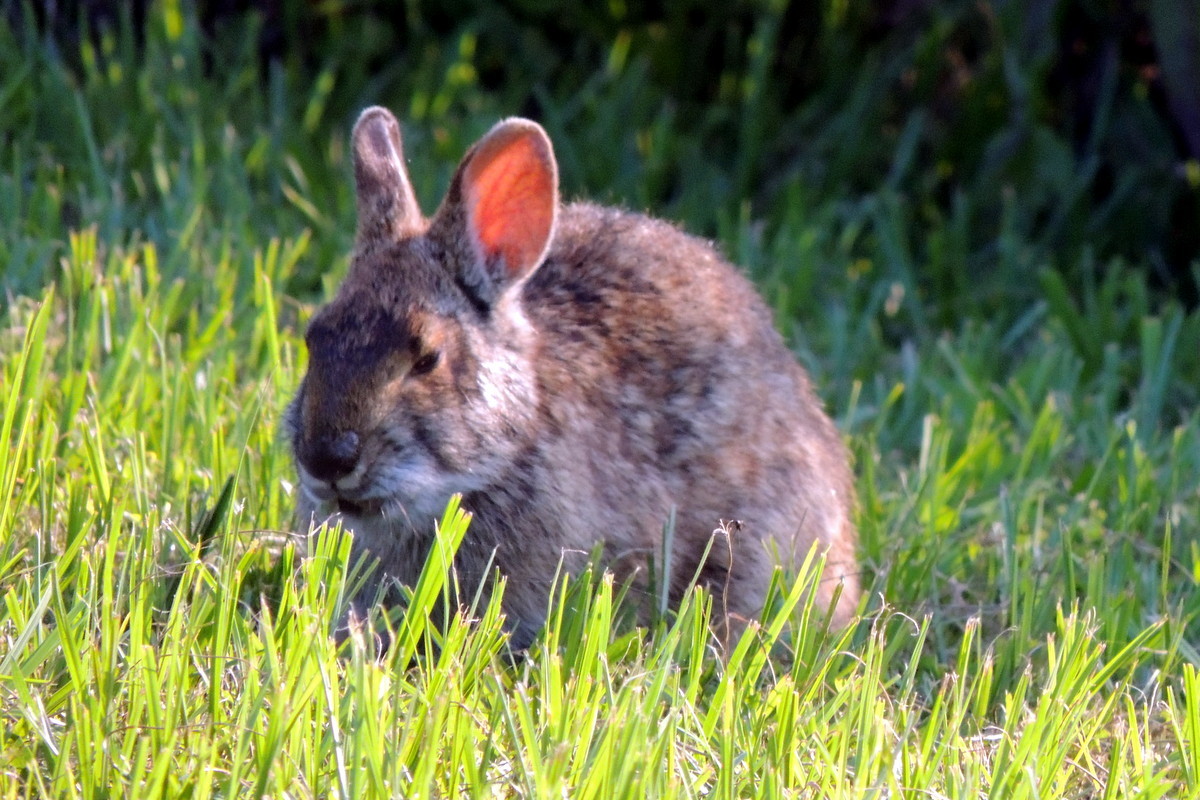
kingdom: Animalia
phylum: Chordata
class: Mammalia
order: Lagomorpha
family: Leporidae
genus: Sylvilagus
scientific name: Sylvilagus palustris
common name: Marsh rabbit
